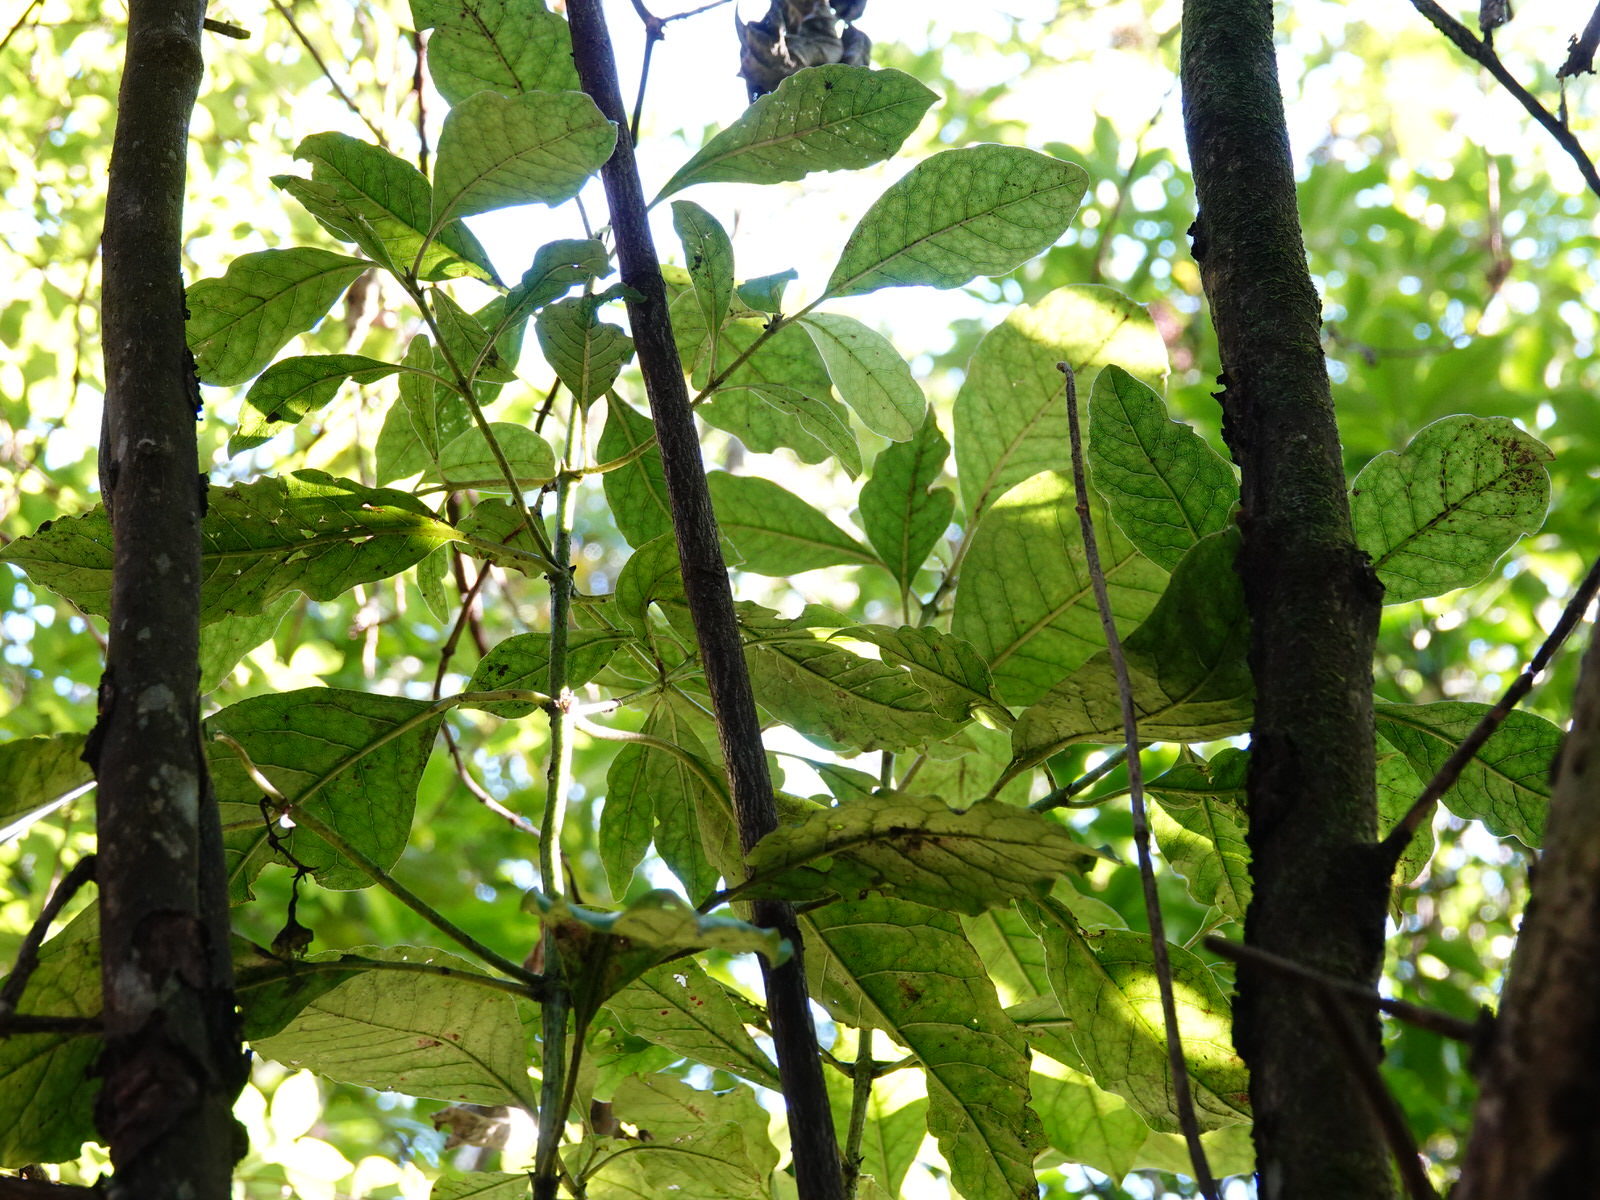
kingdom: Plantae
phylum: Tracheophyta
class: Magnoliopsida
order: Gentianales
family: Rubiaceae
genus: Coprosma
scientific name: Coprosma autumnalis
